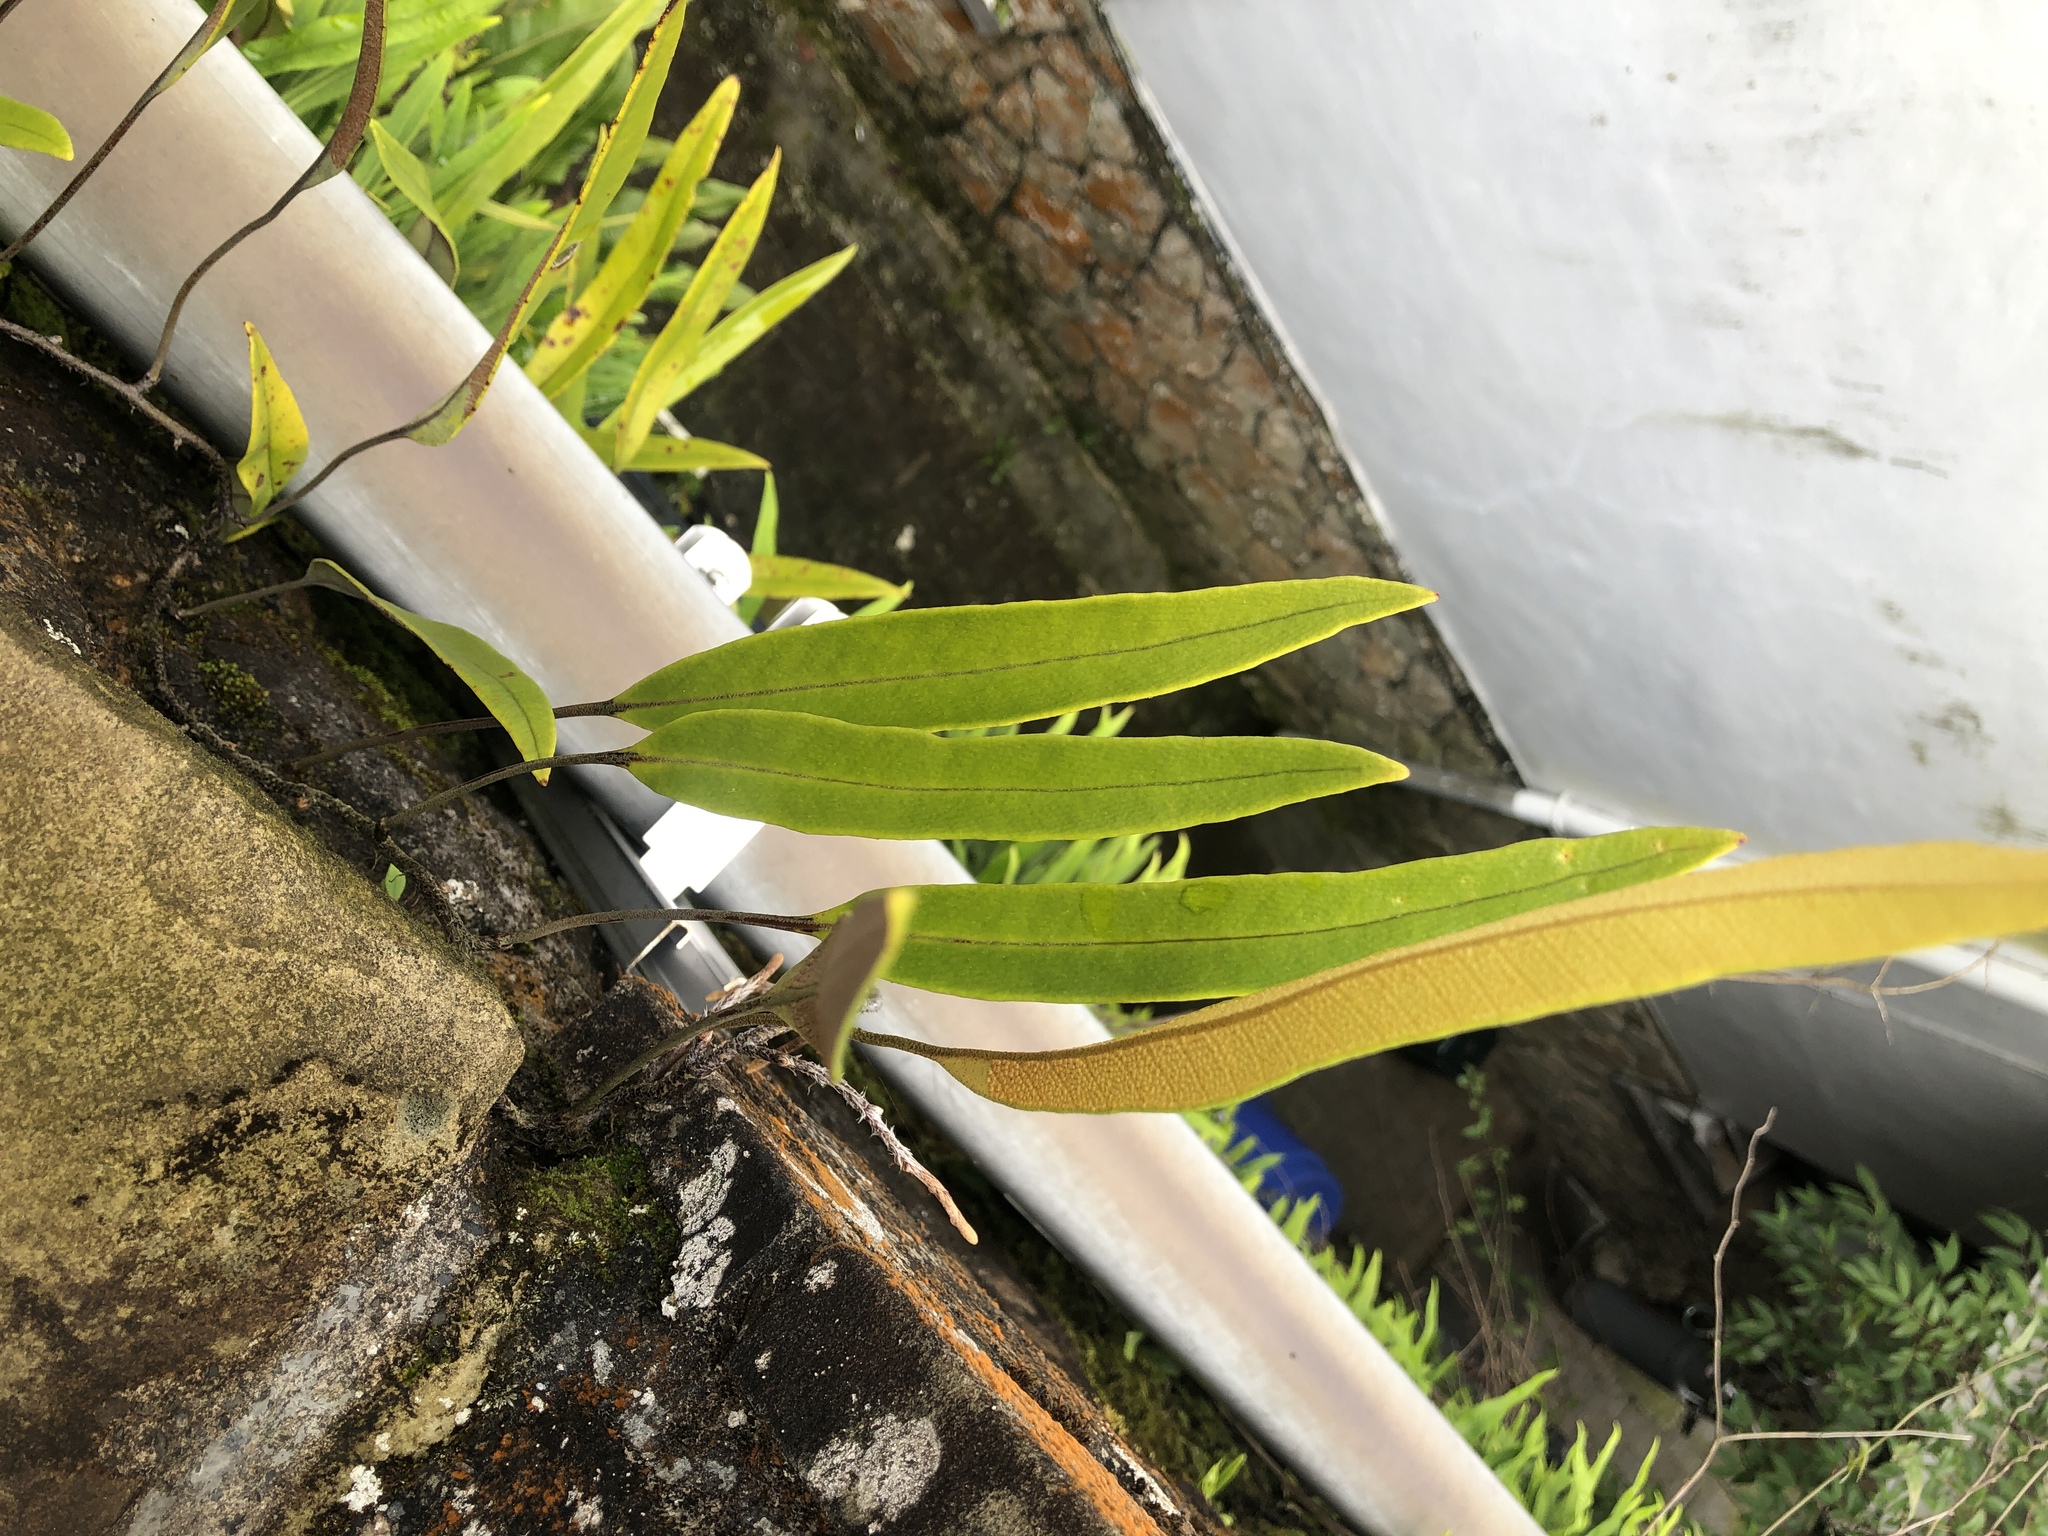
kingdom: Plantae
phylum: Tracheophyta
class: Polypodiopsida
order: Polypodiales
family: Polypodiaceae
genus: Pyrrosia
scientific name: Pyrrosia lingua
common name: Felt fern
